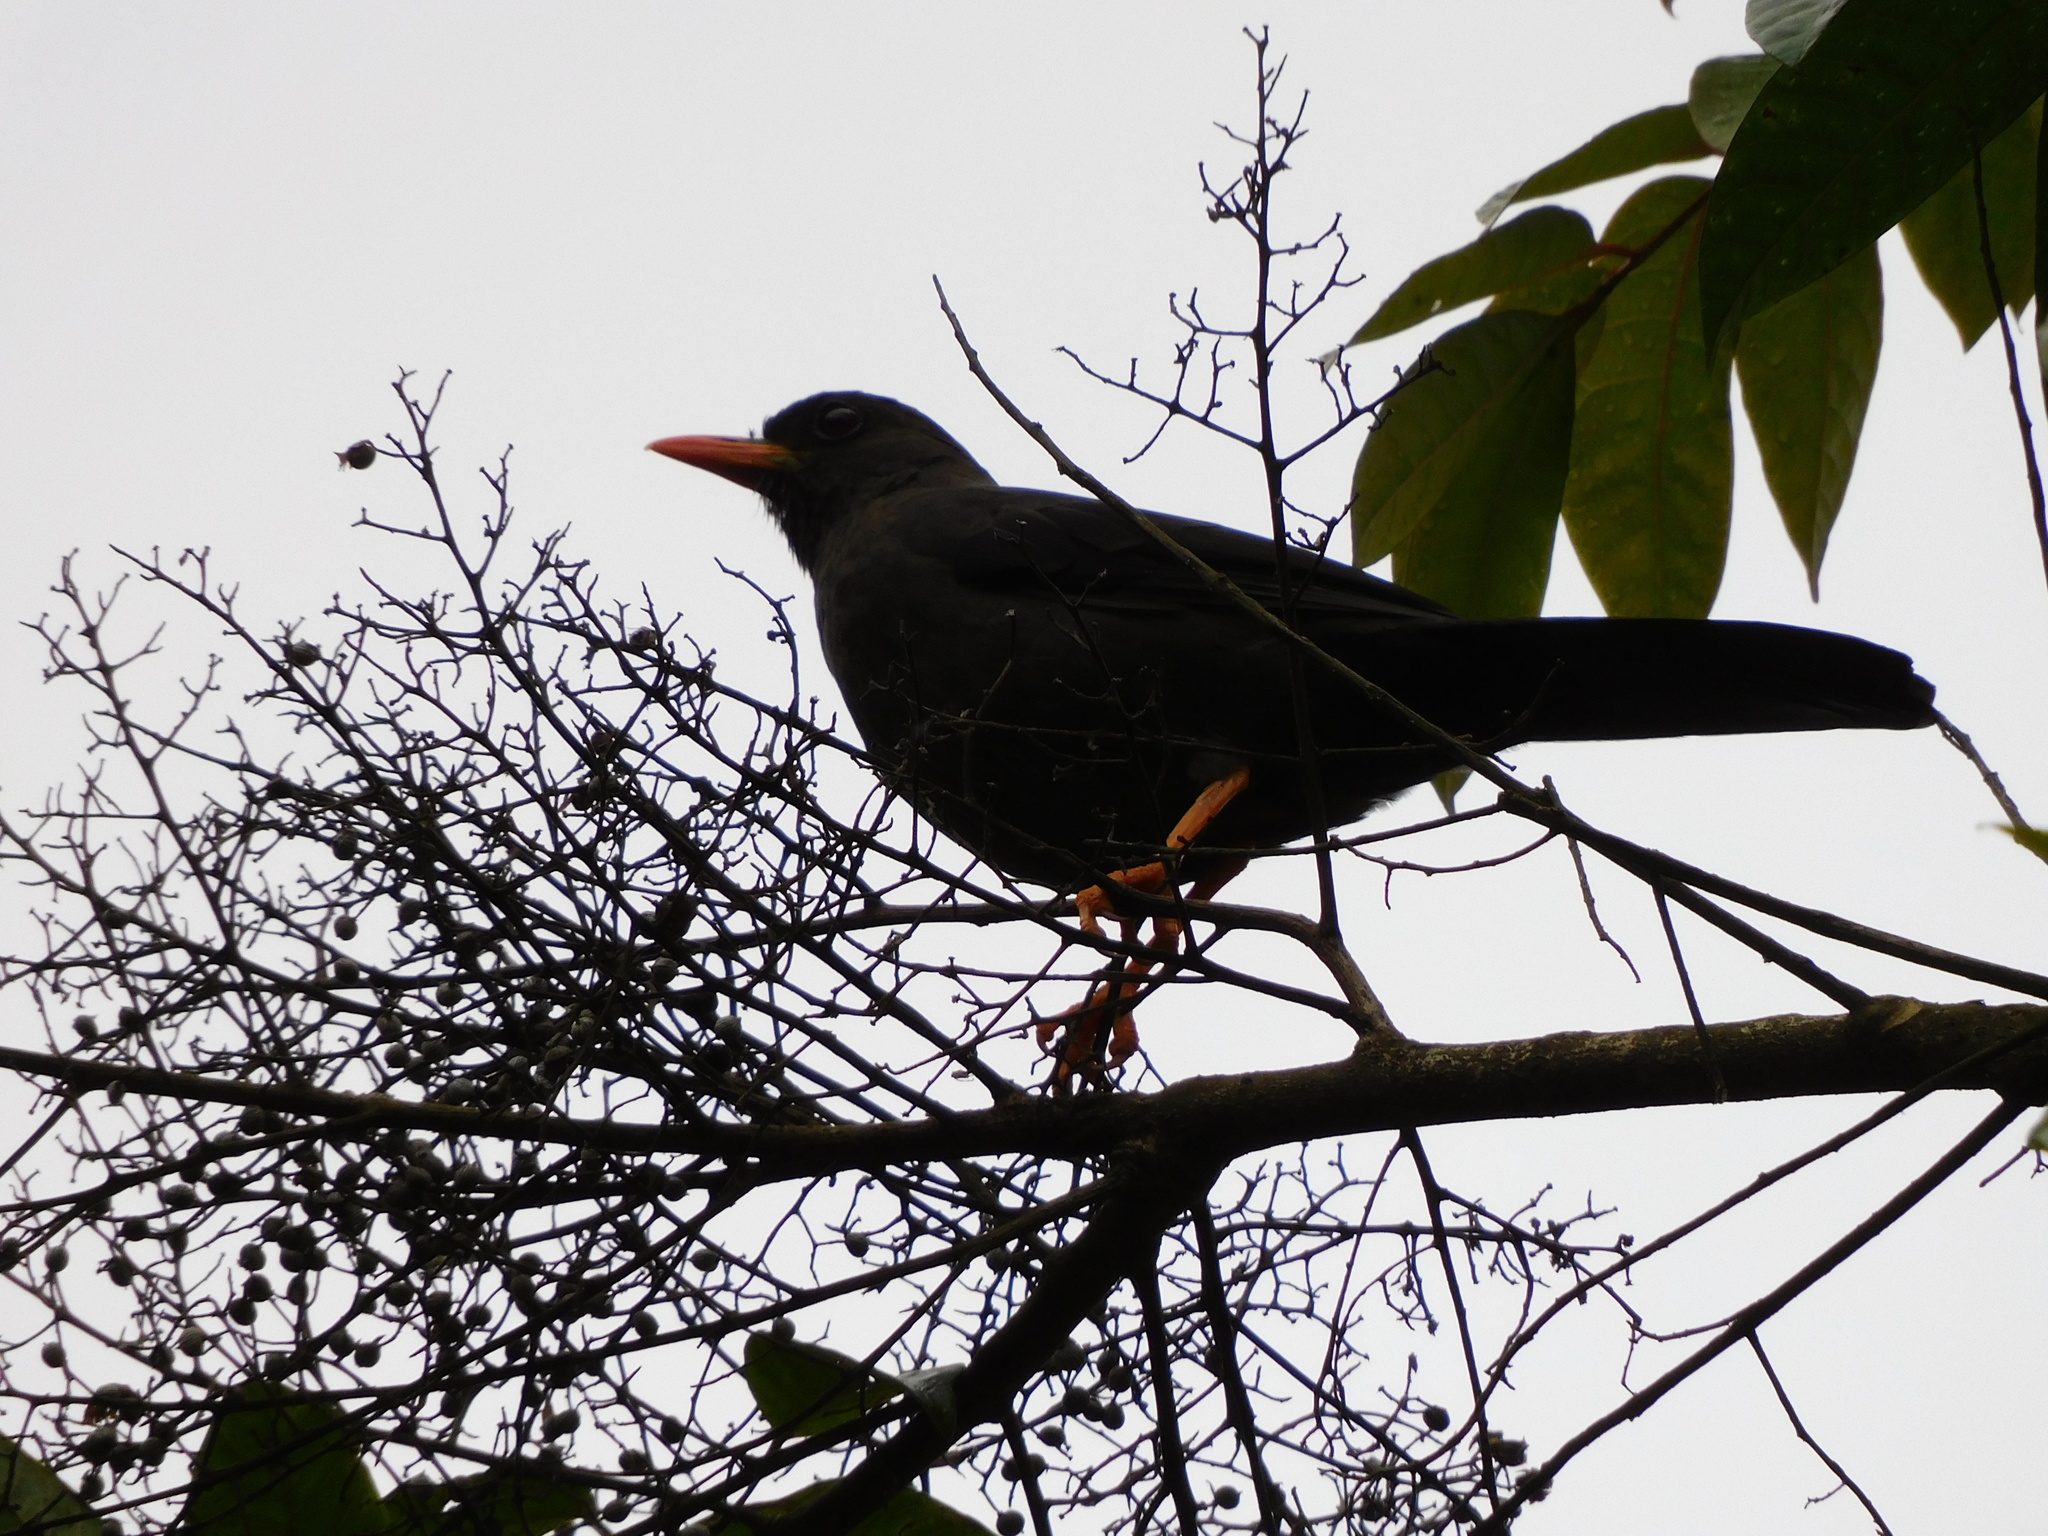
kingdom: Animalia
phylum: Chordata
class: Aves
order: Passeriformes
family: Turdidae
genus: Turdus
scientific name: Turdus fuscater
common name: Great thrush
